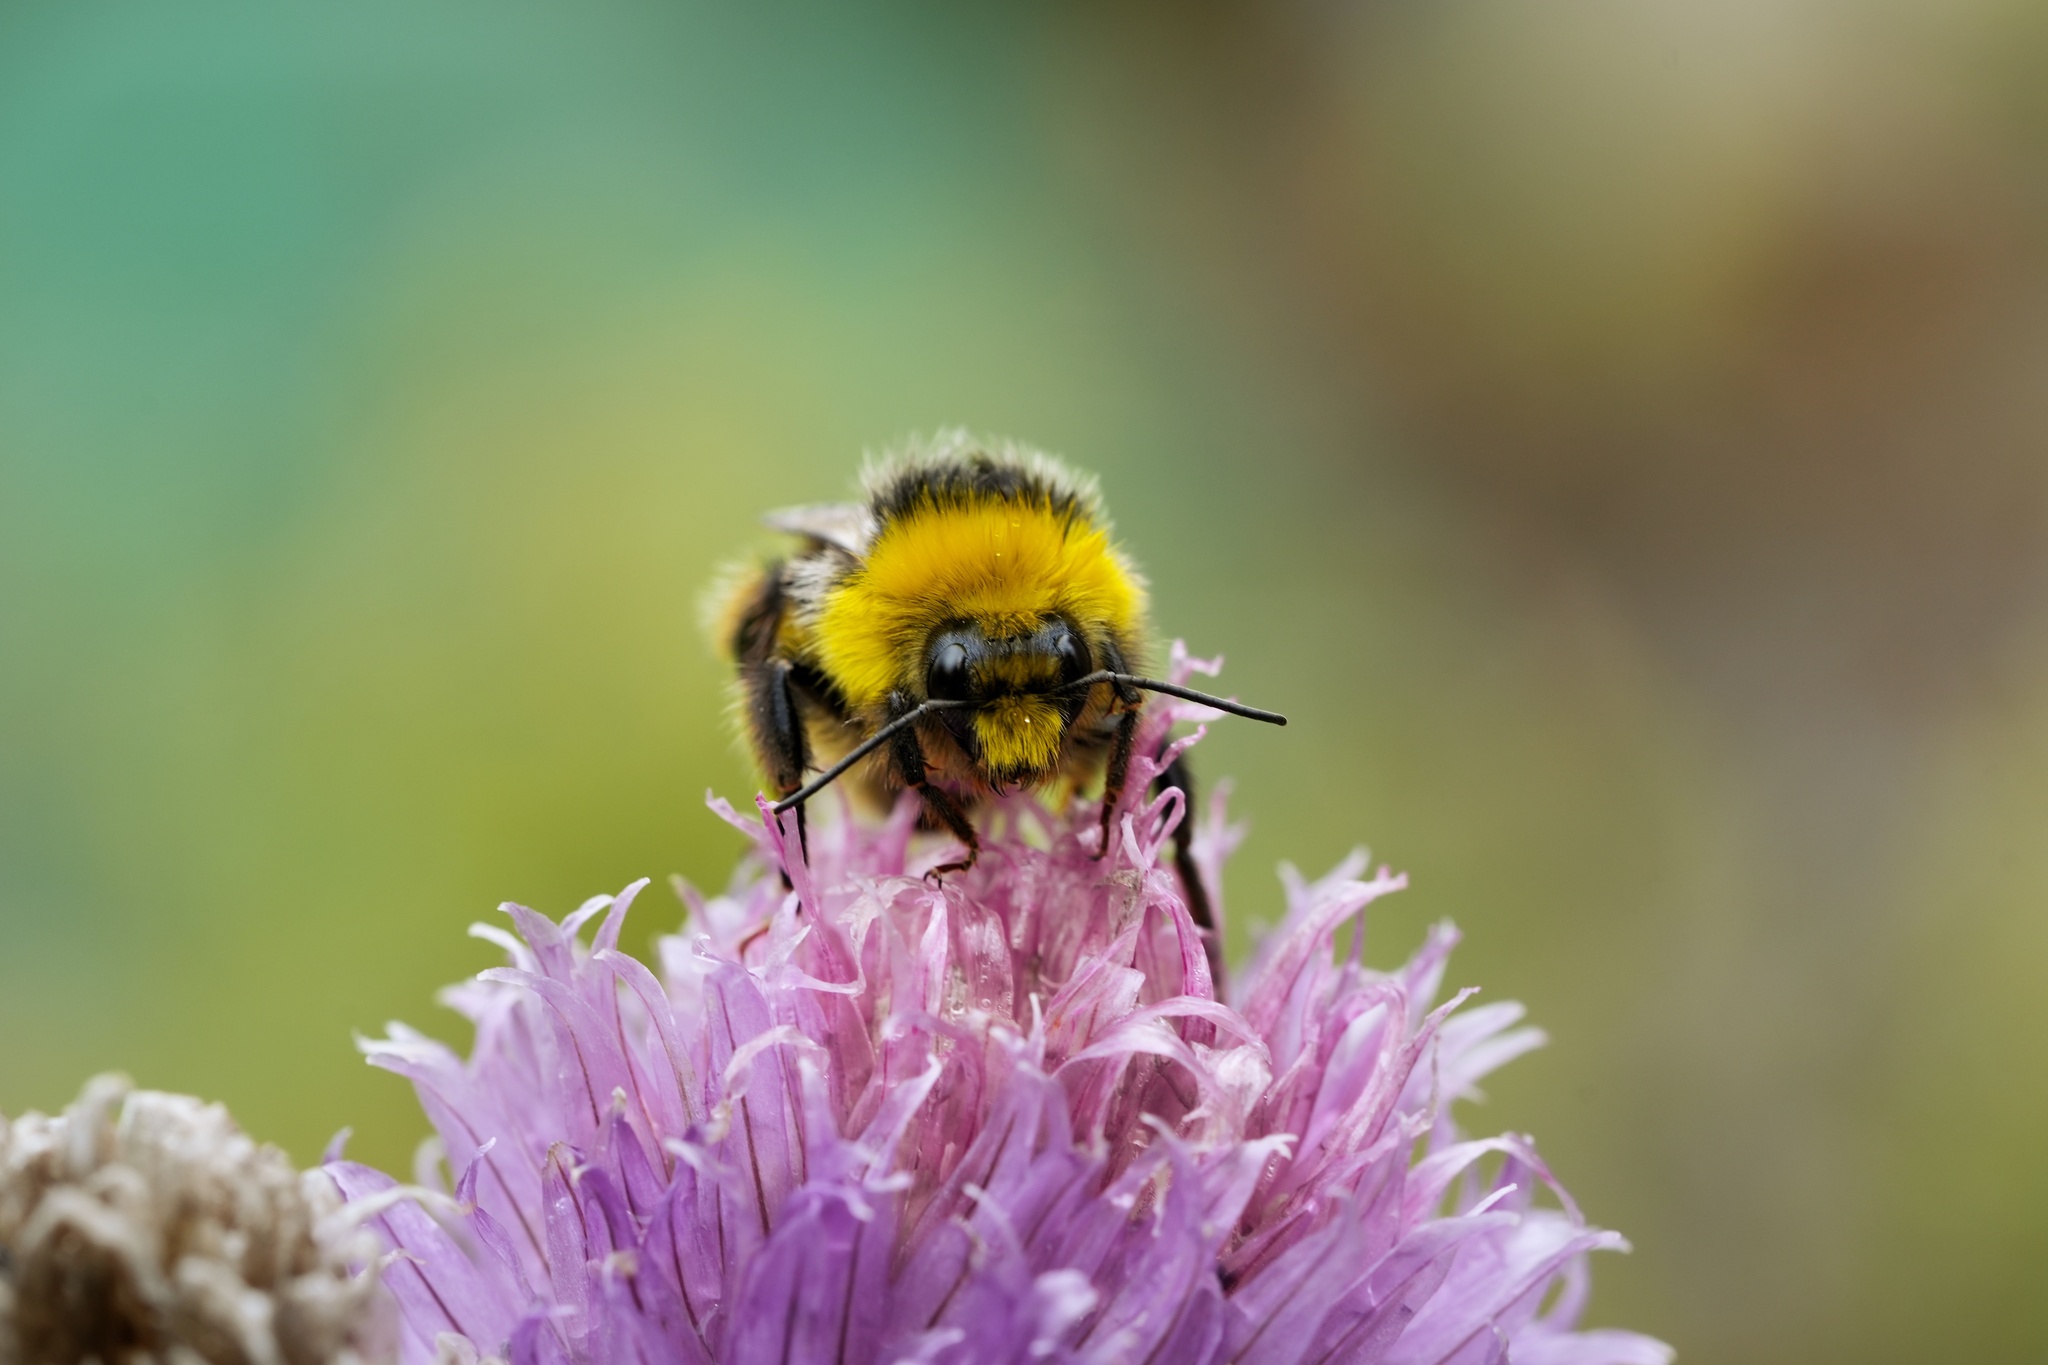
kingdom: Animalia
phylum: Arthropoda
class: Insecta
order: Hymenoptera
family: Apidae
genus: Bombus
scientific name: Bombus lucorum
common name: White-tailed bumblebee
